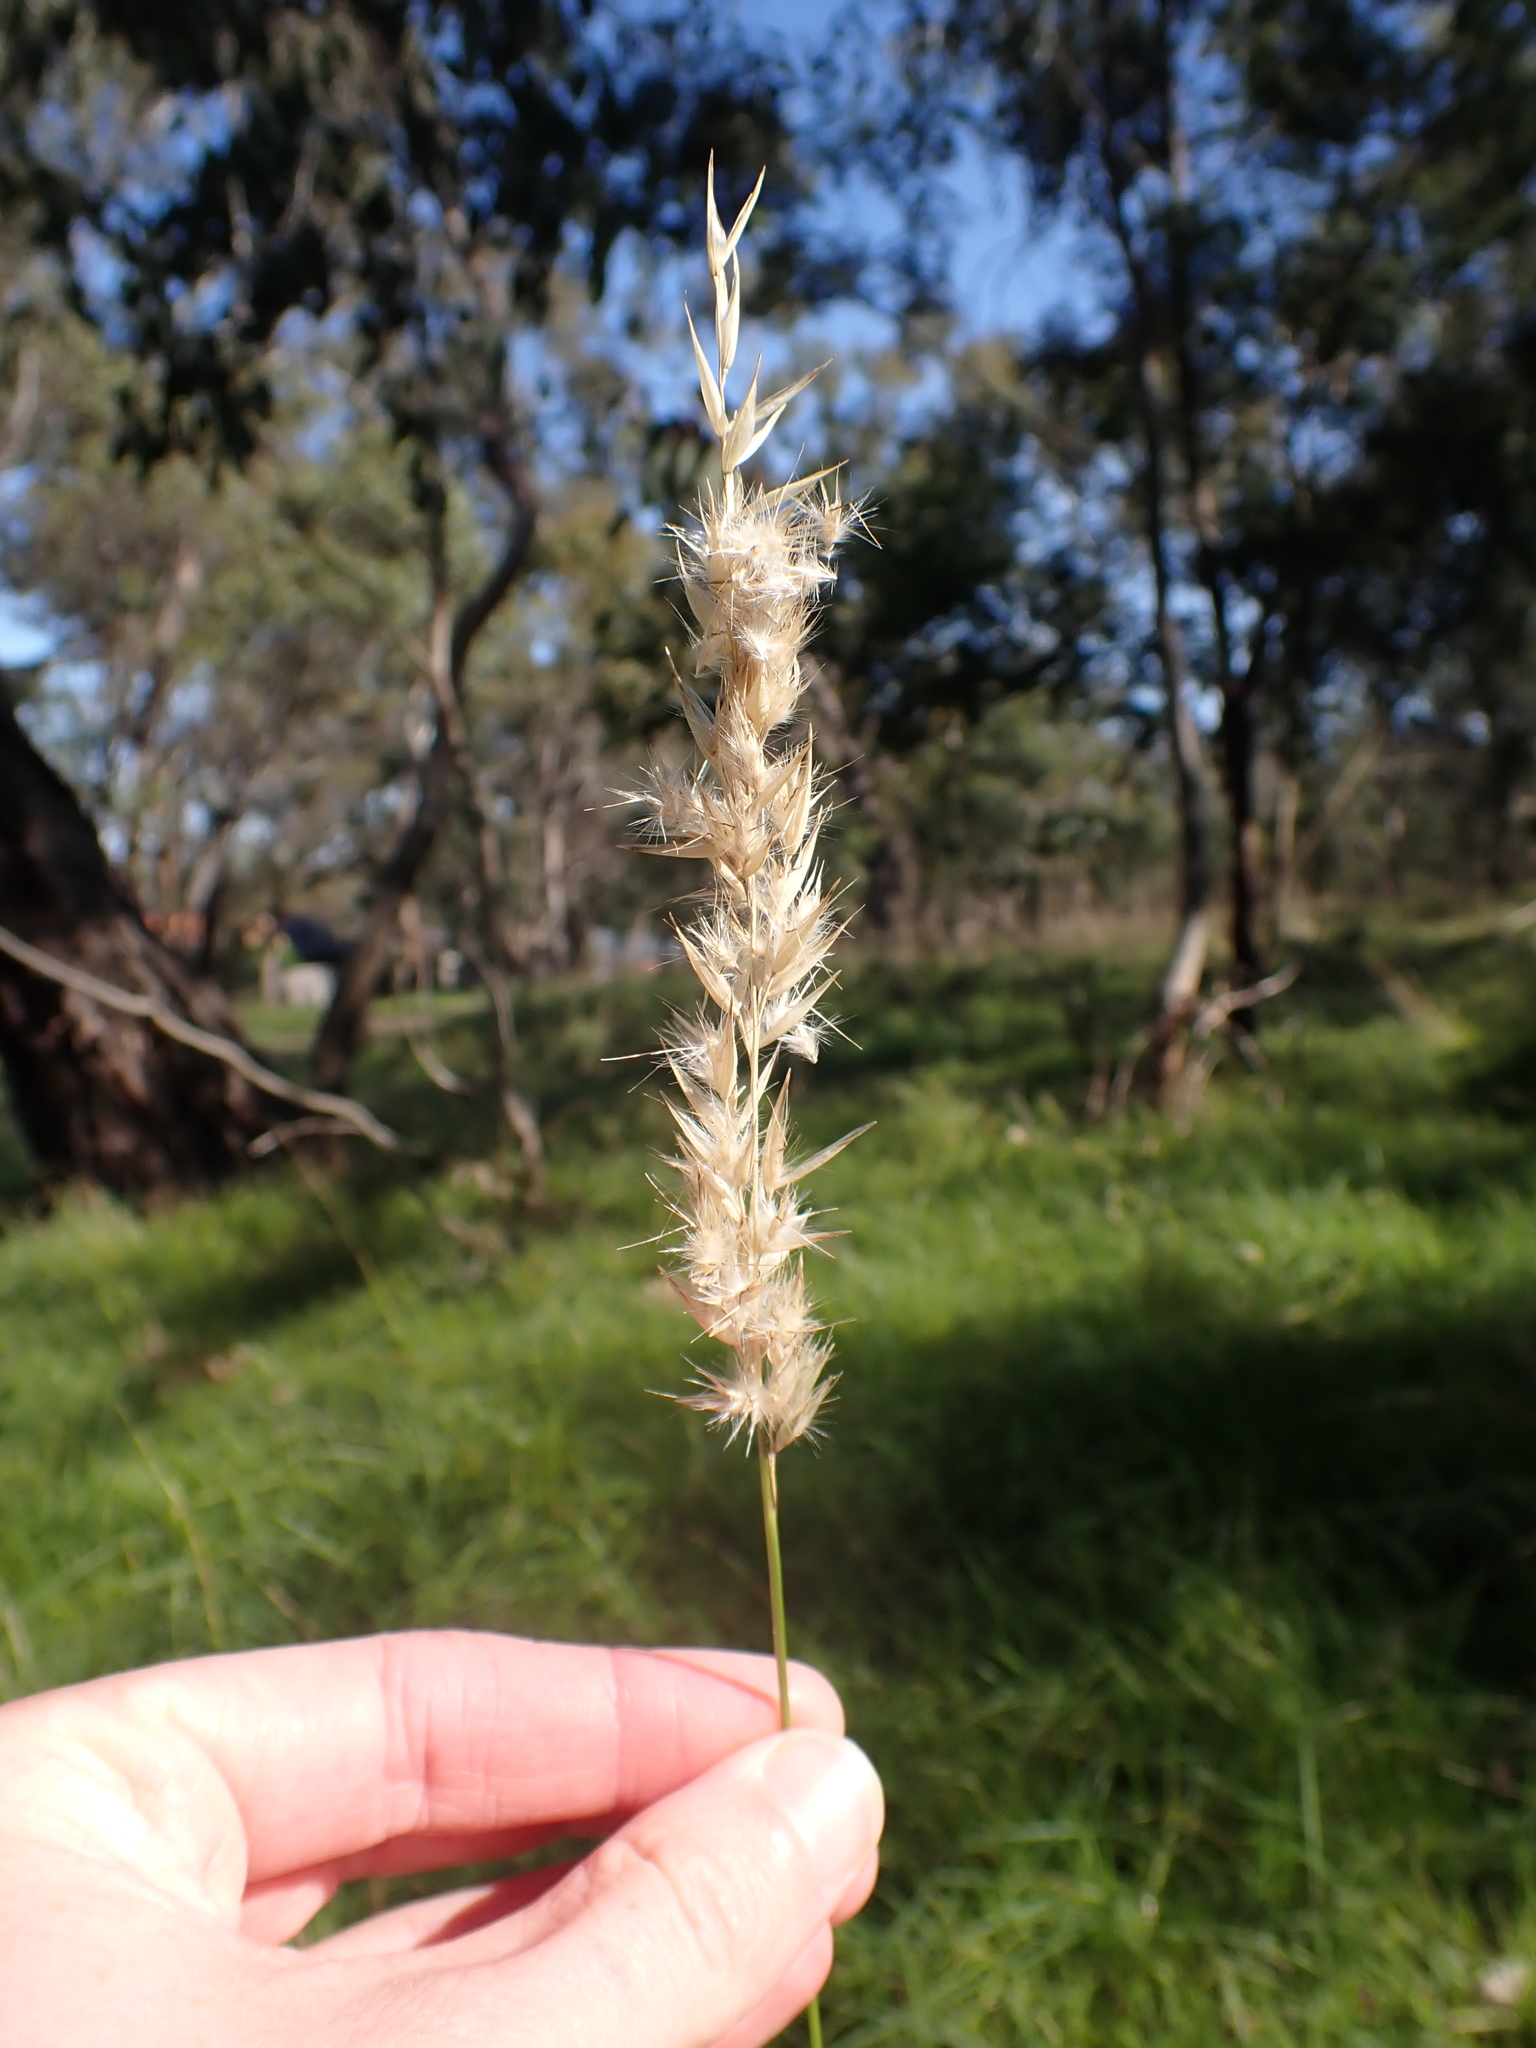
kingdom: Plantae
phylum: Tracheophyta
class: Liliopsida
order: Poales
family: Poaceae
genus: Rytidosperma
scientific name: Rytidosperma fulvum
